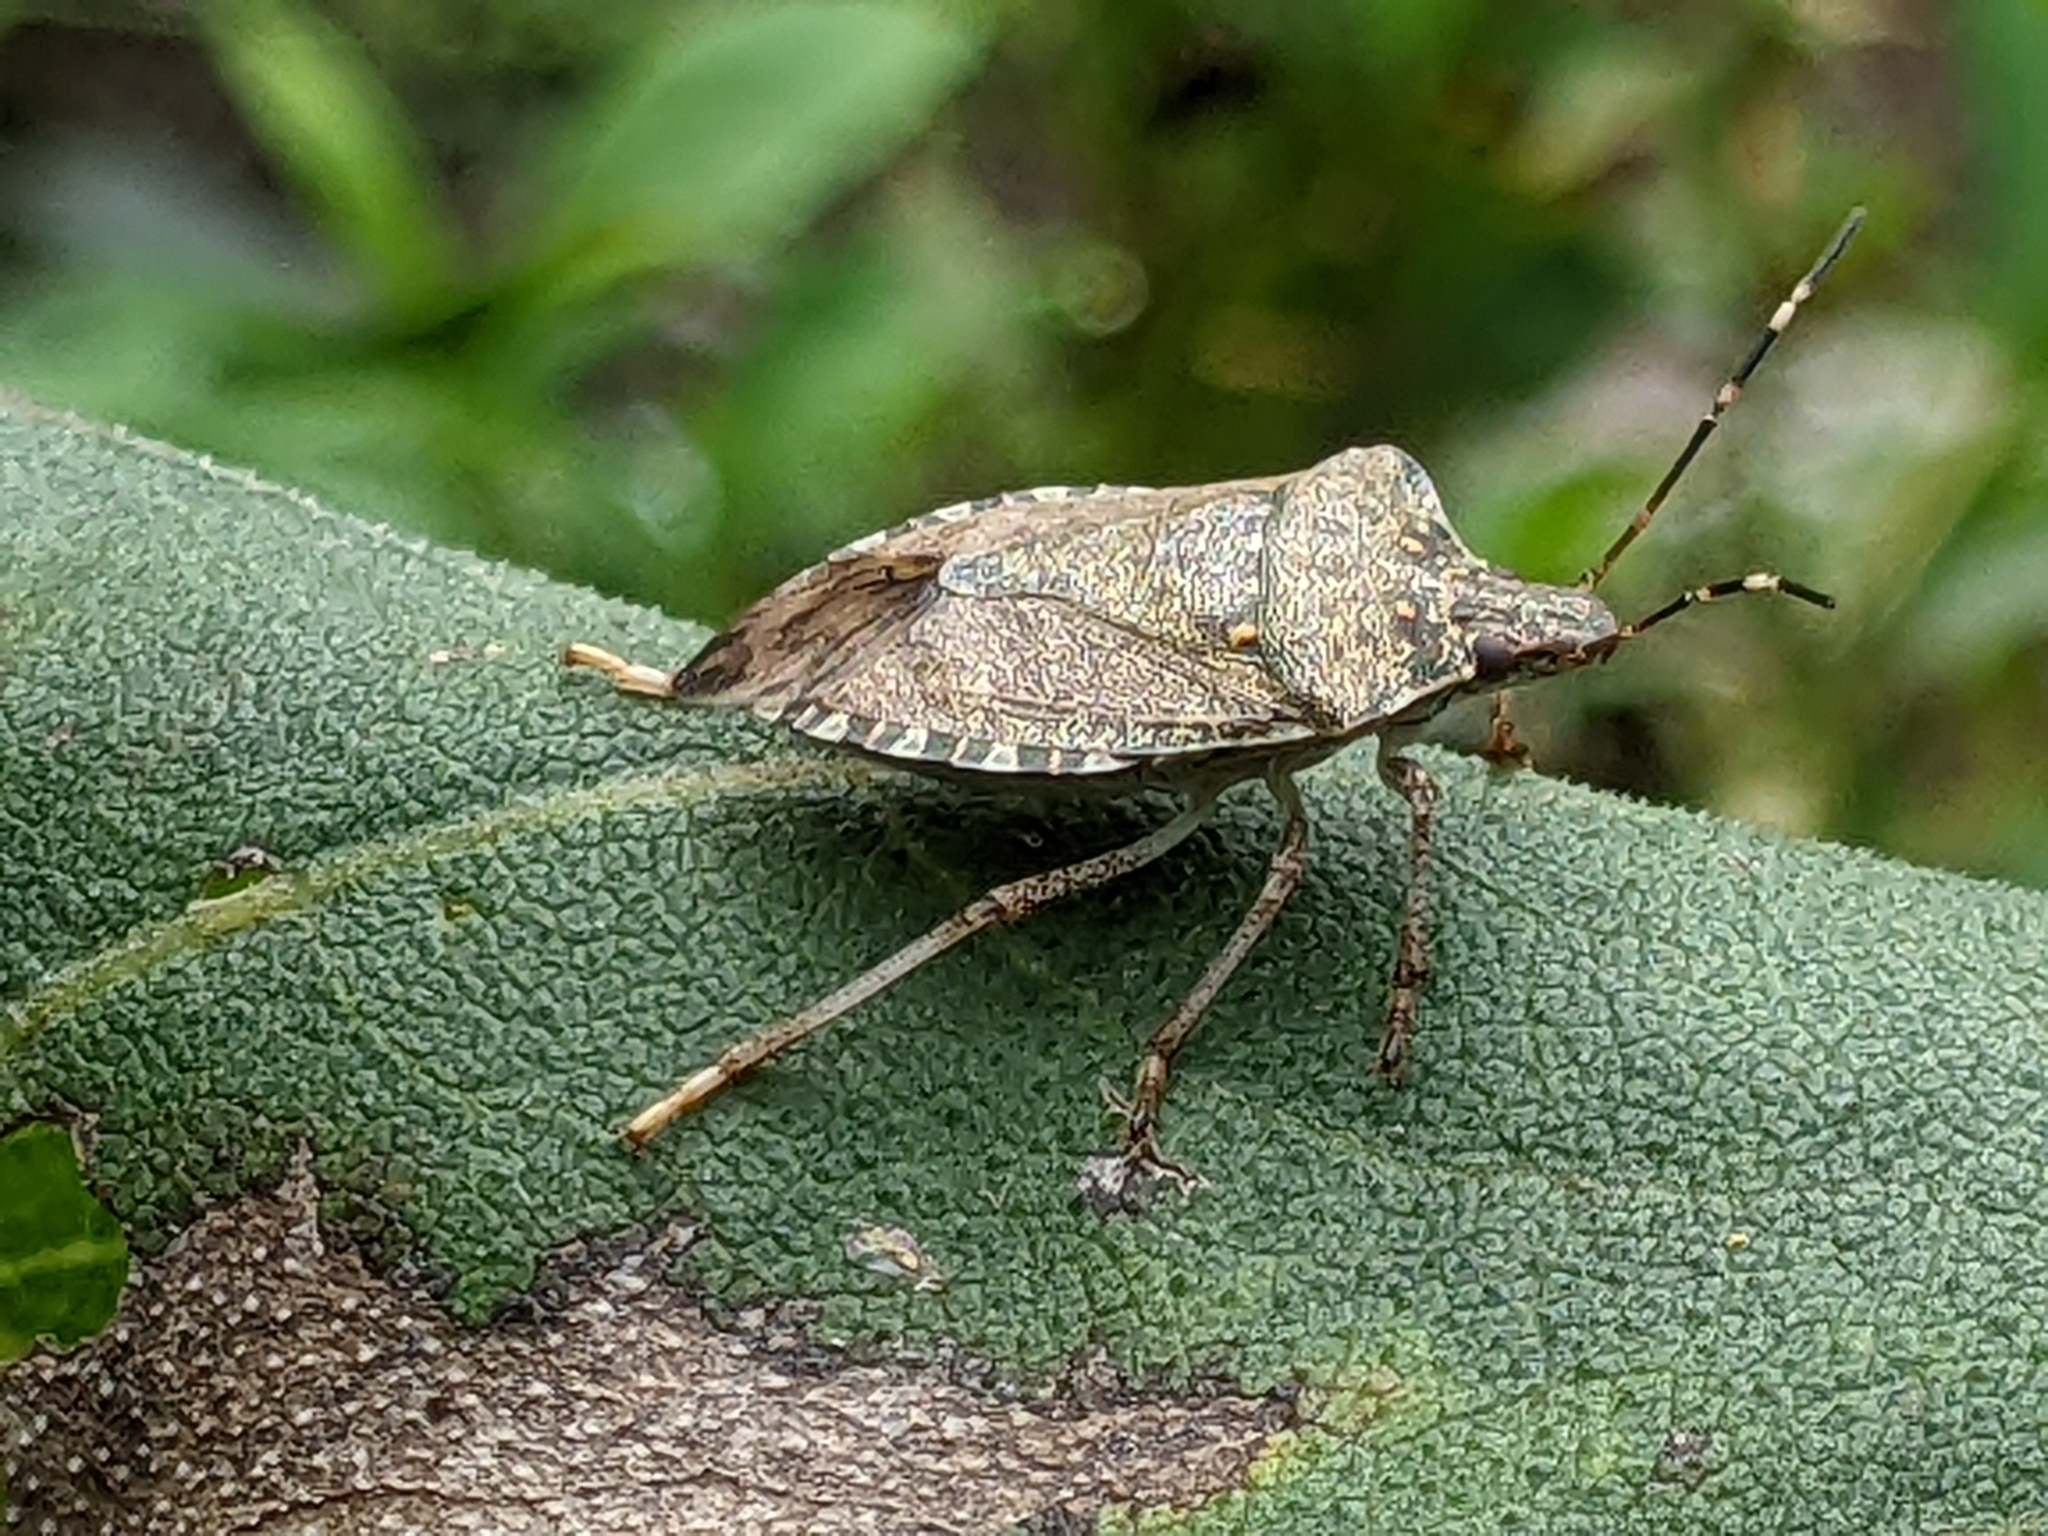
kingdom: Animalia
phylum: Arthropoda
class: Insecta
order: Hemiptera
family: Pentatomidae
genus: Halyomorpha
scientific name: Halyomorpha halys
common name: Brown marmorated stink bug
